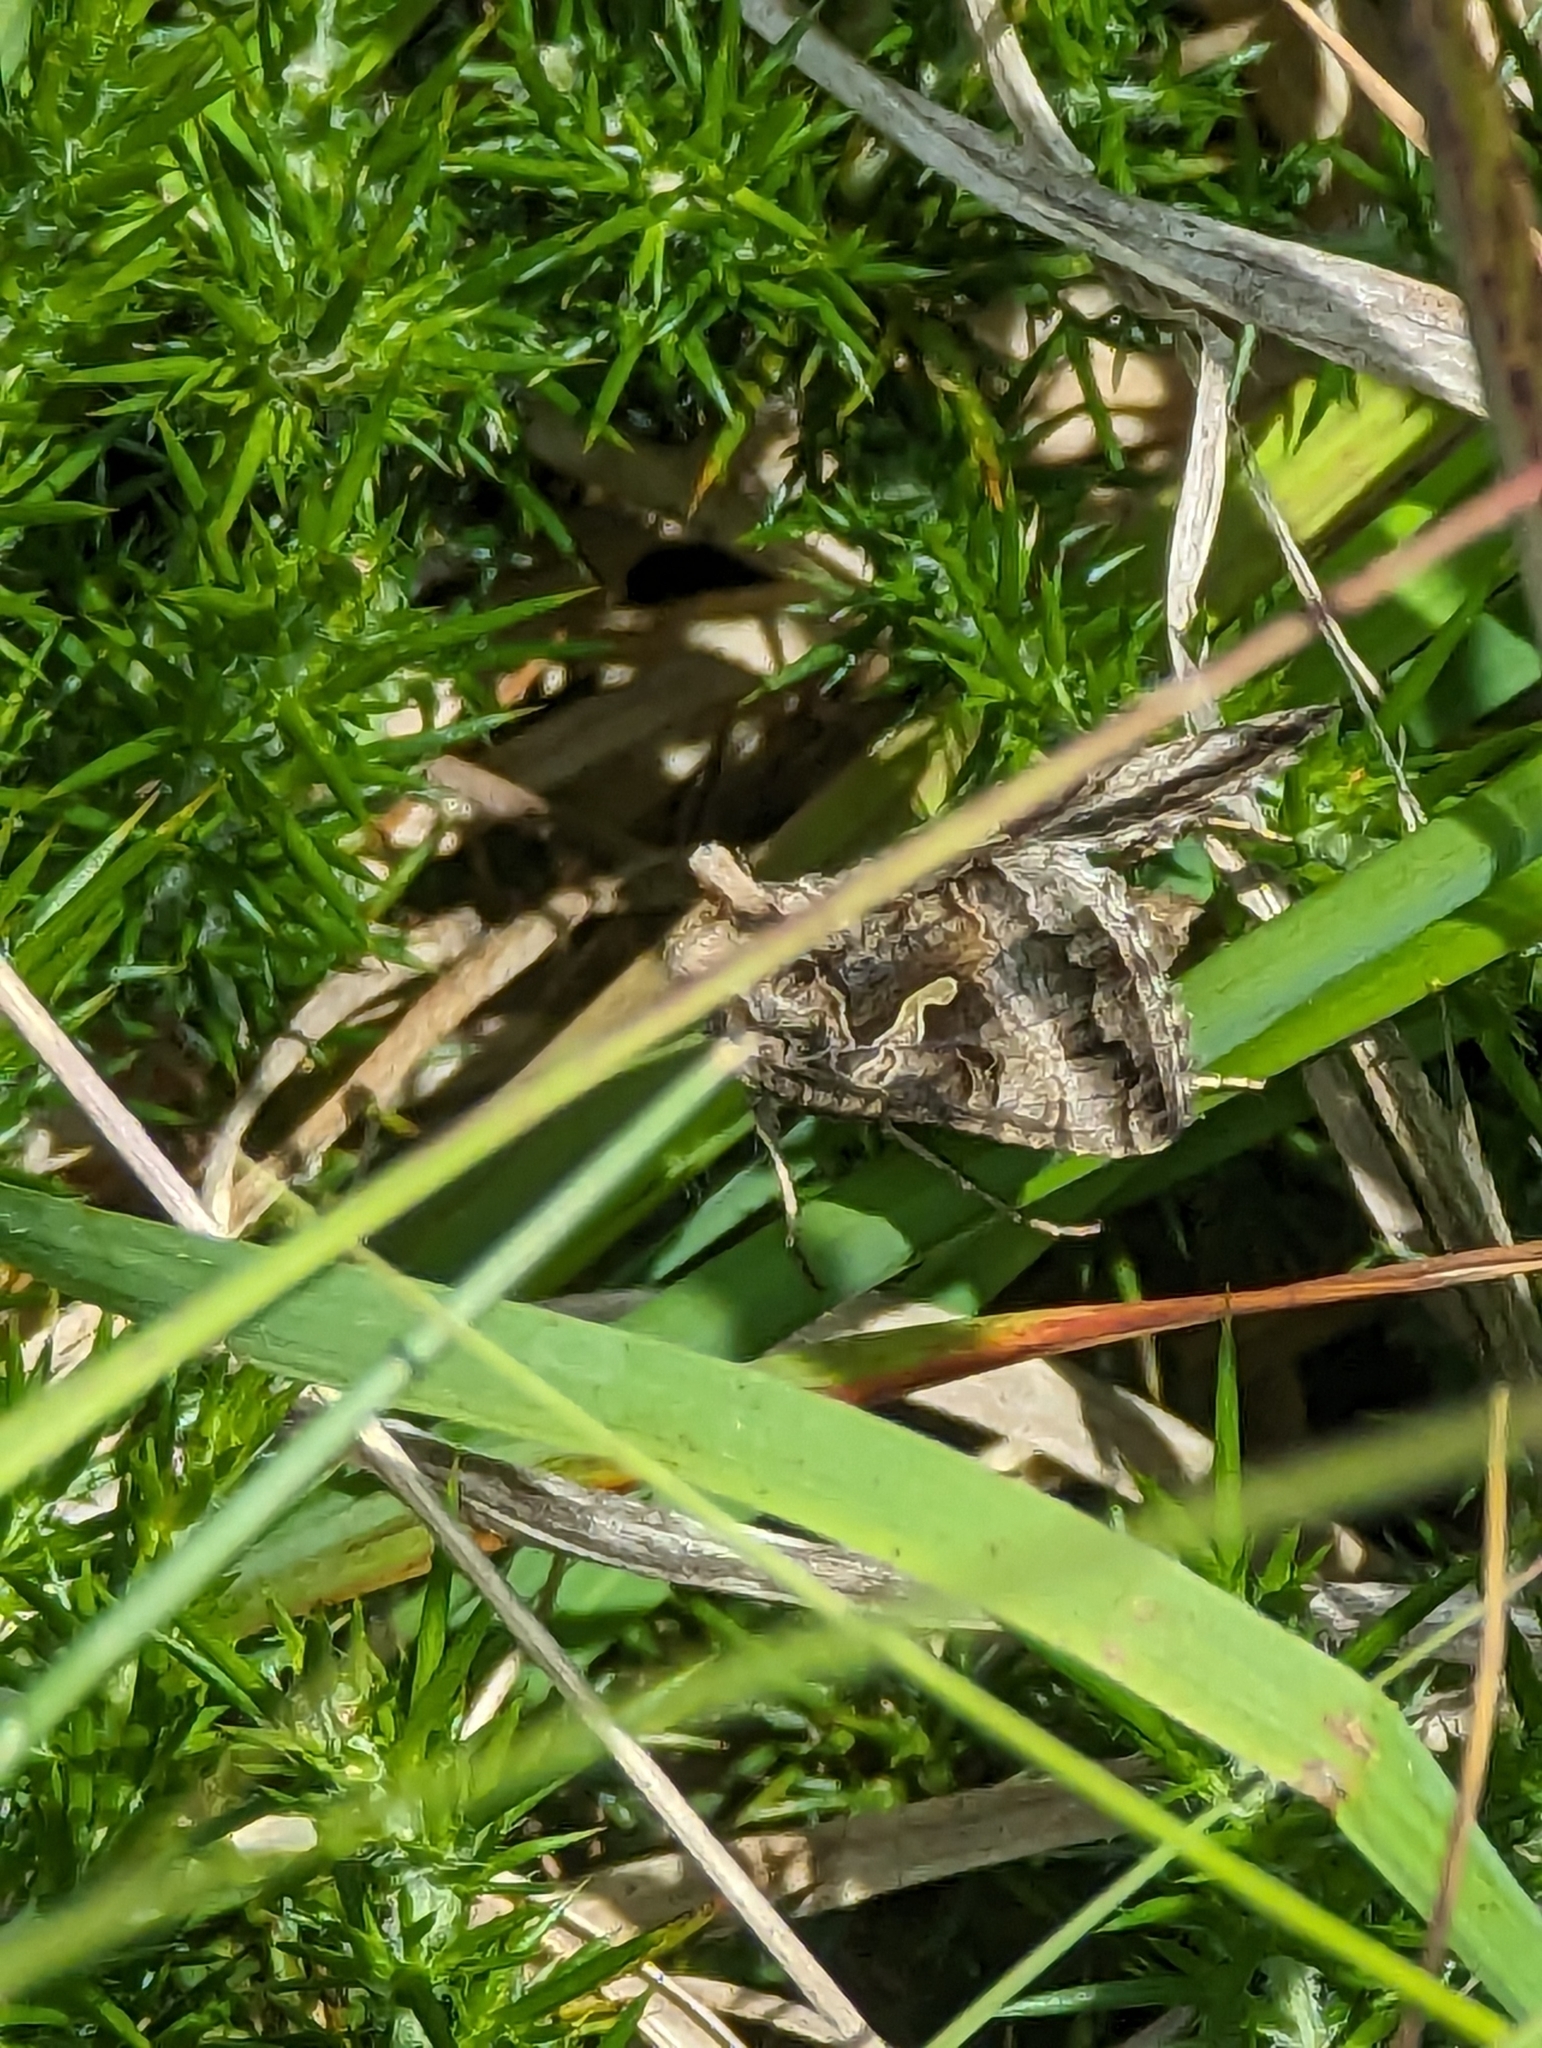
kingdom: Animalia
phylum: Arthropoda
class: Insecta
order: Lepidoptera
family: Noctuidae
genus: Autographa
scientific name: Autographa gamma
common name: Silver y
